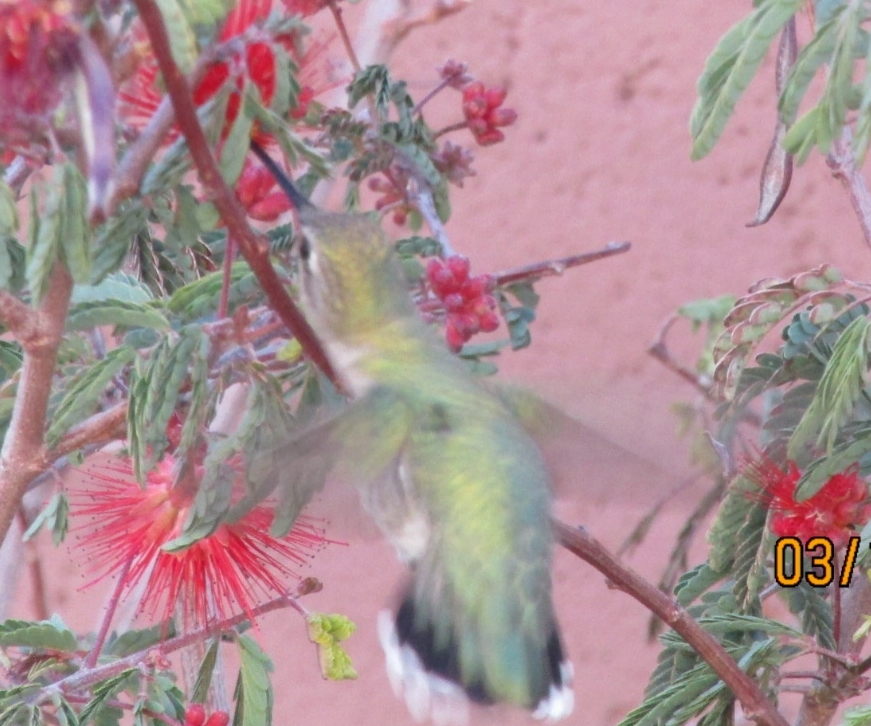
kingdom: Animalia
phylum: Chordata
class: Aves
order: Apodiformes
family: Trochilidae
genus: Calypte
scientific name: Calypte costae
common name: Costa's hummingbird
